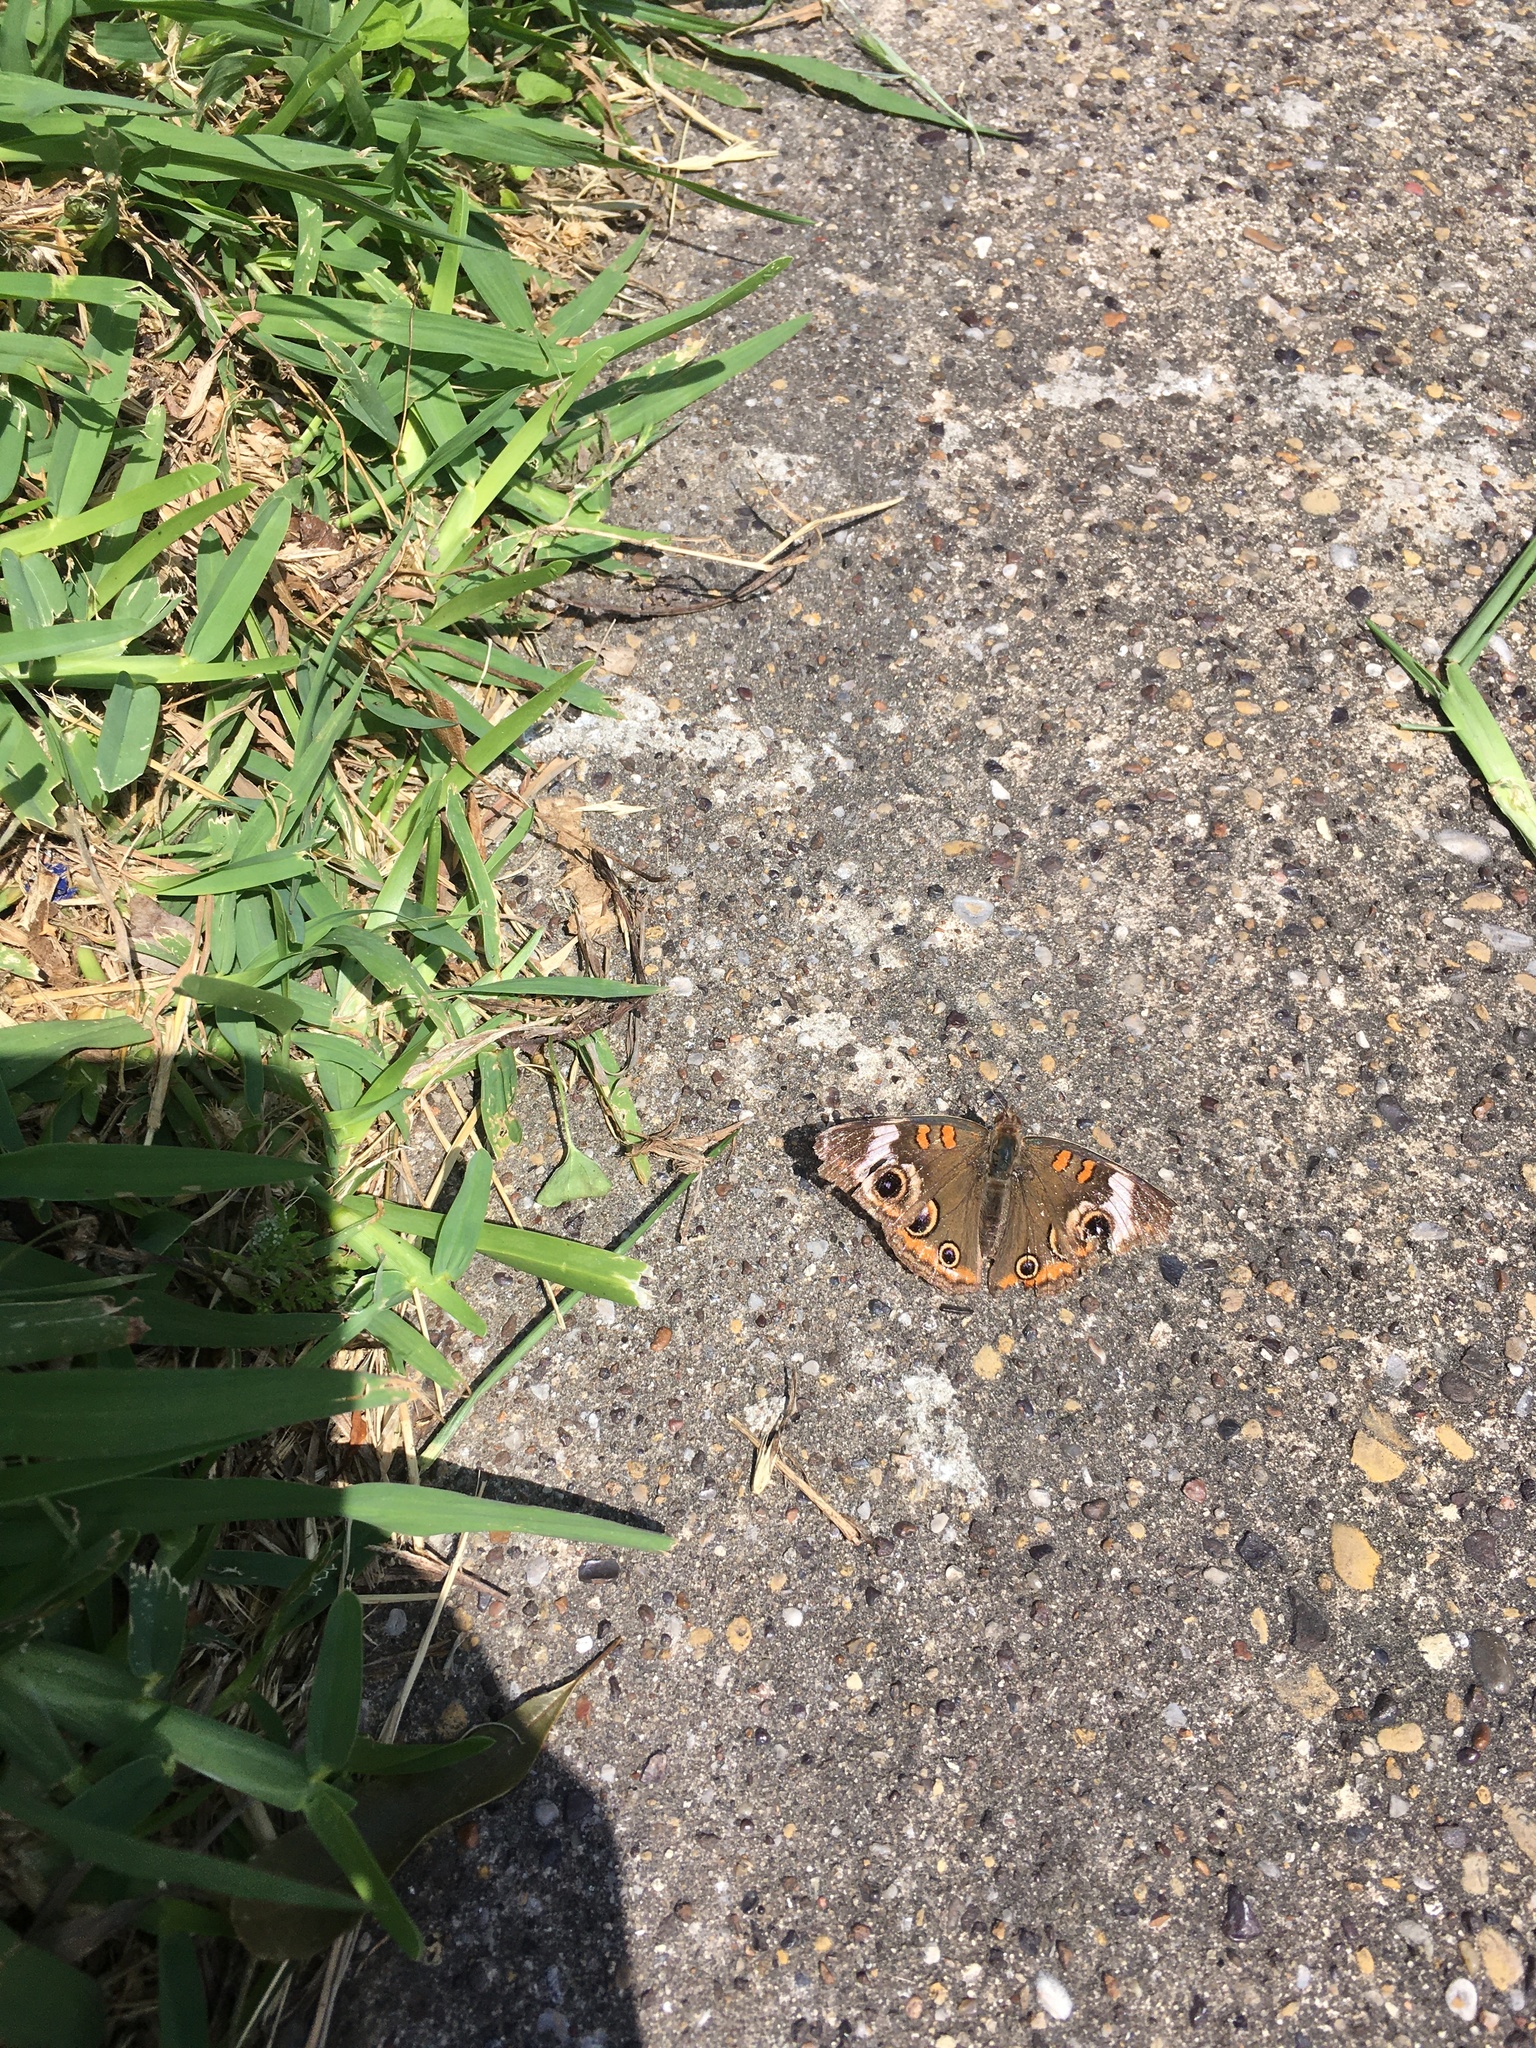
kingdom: Animalia
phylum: Arthropoda
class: Insecta
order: Lepidoptera
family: Nymphalidae
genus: Junonia
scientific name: Junonia coenia
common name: Common buckeye
